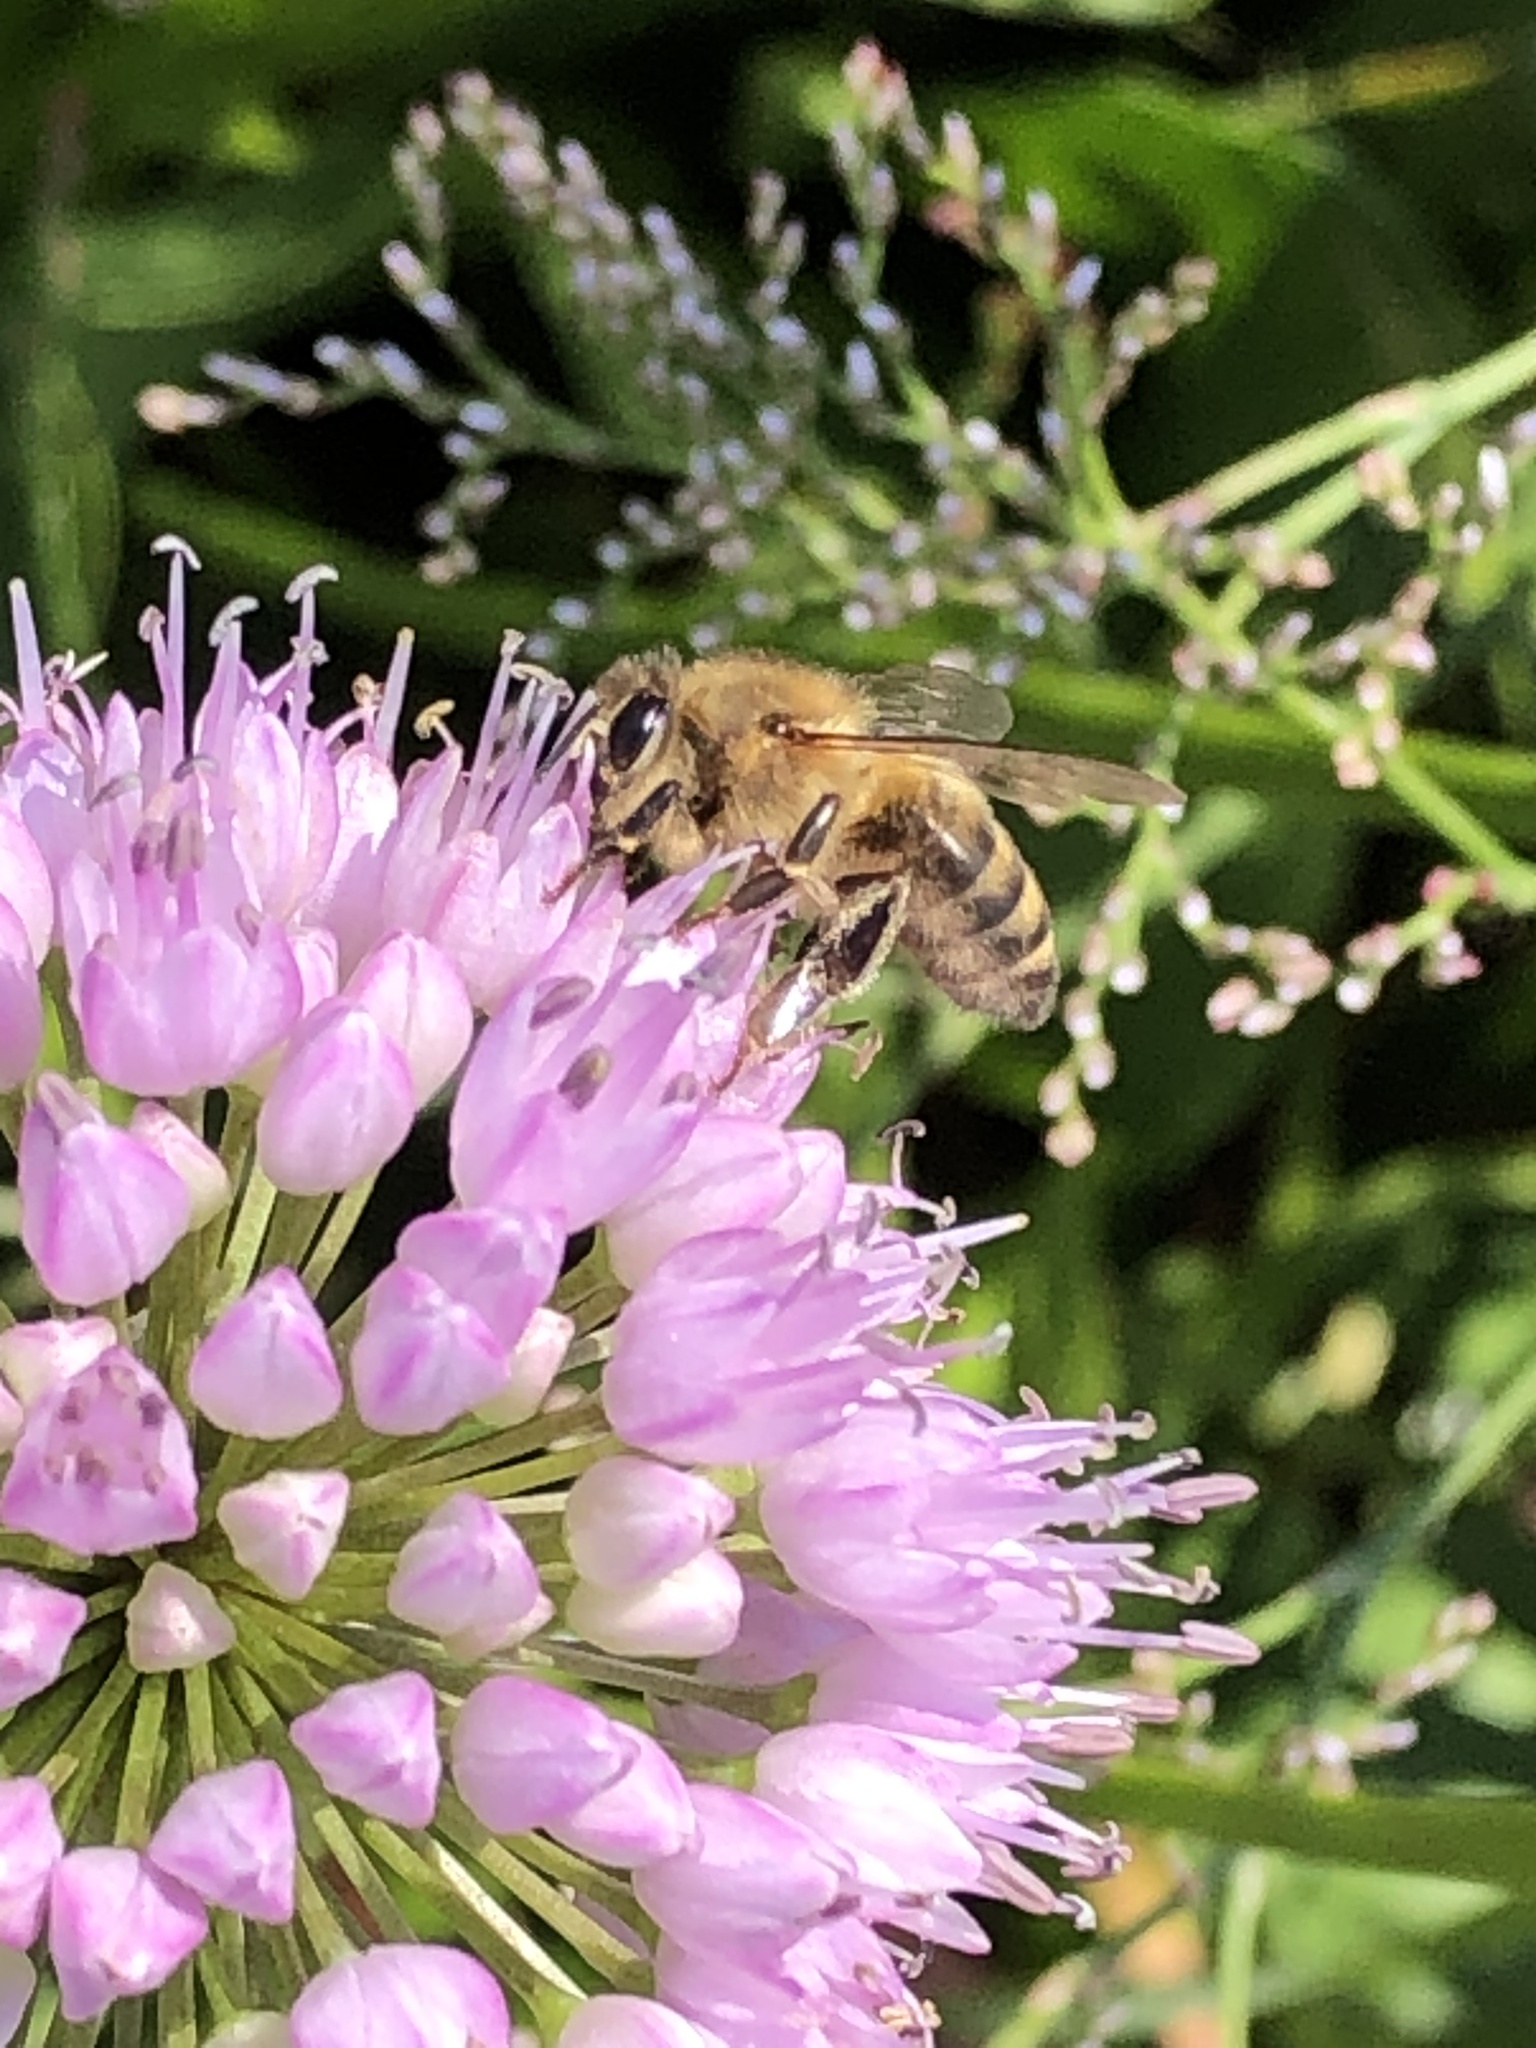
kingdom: Animalia
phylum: Arthropoda
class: Insecta
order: Hymenoptera
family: Apidae
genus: Apis
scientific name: Apis mellifera
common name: Honey bee
